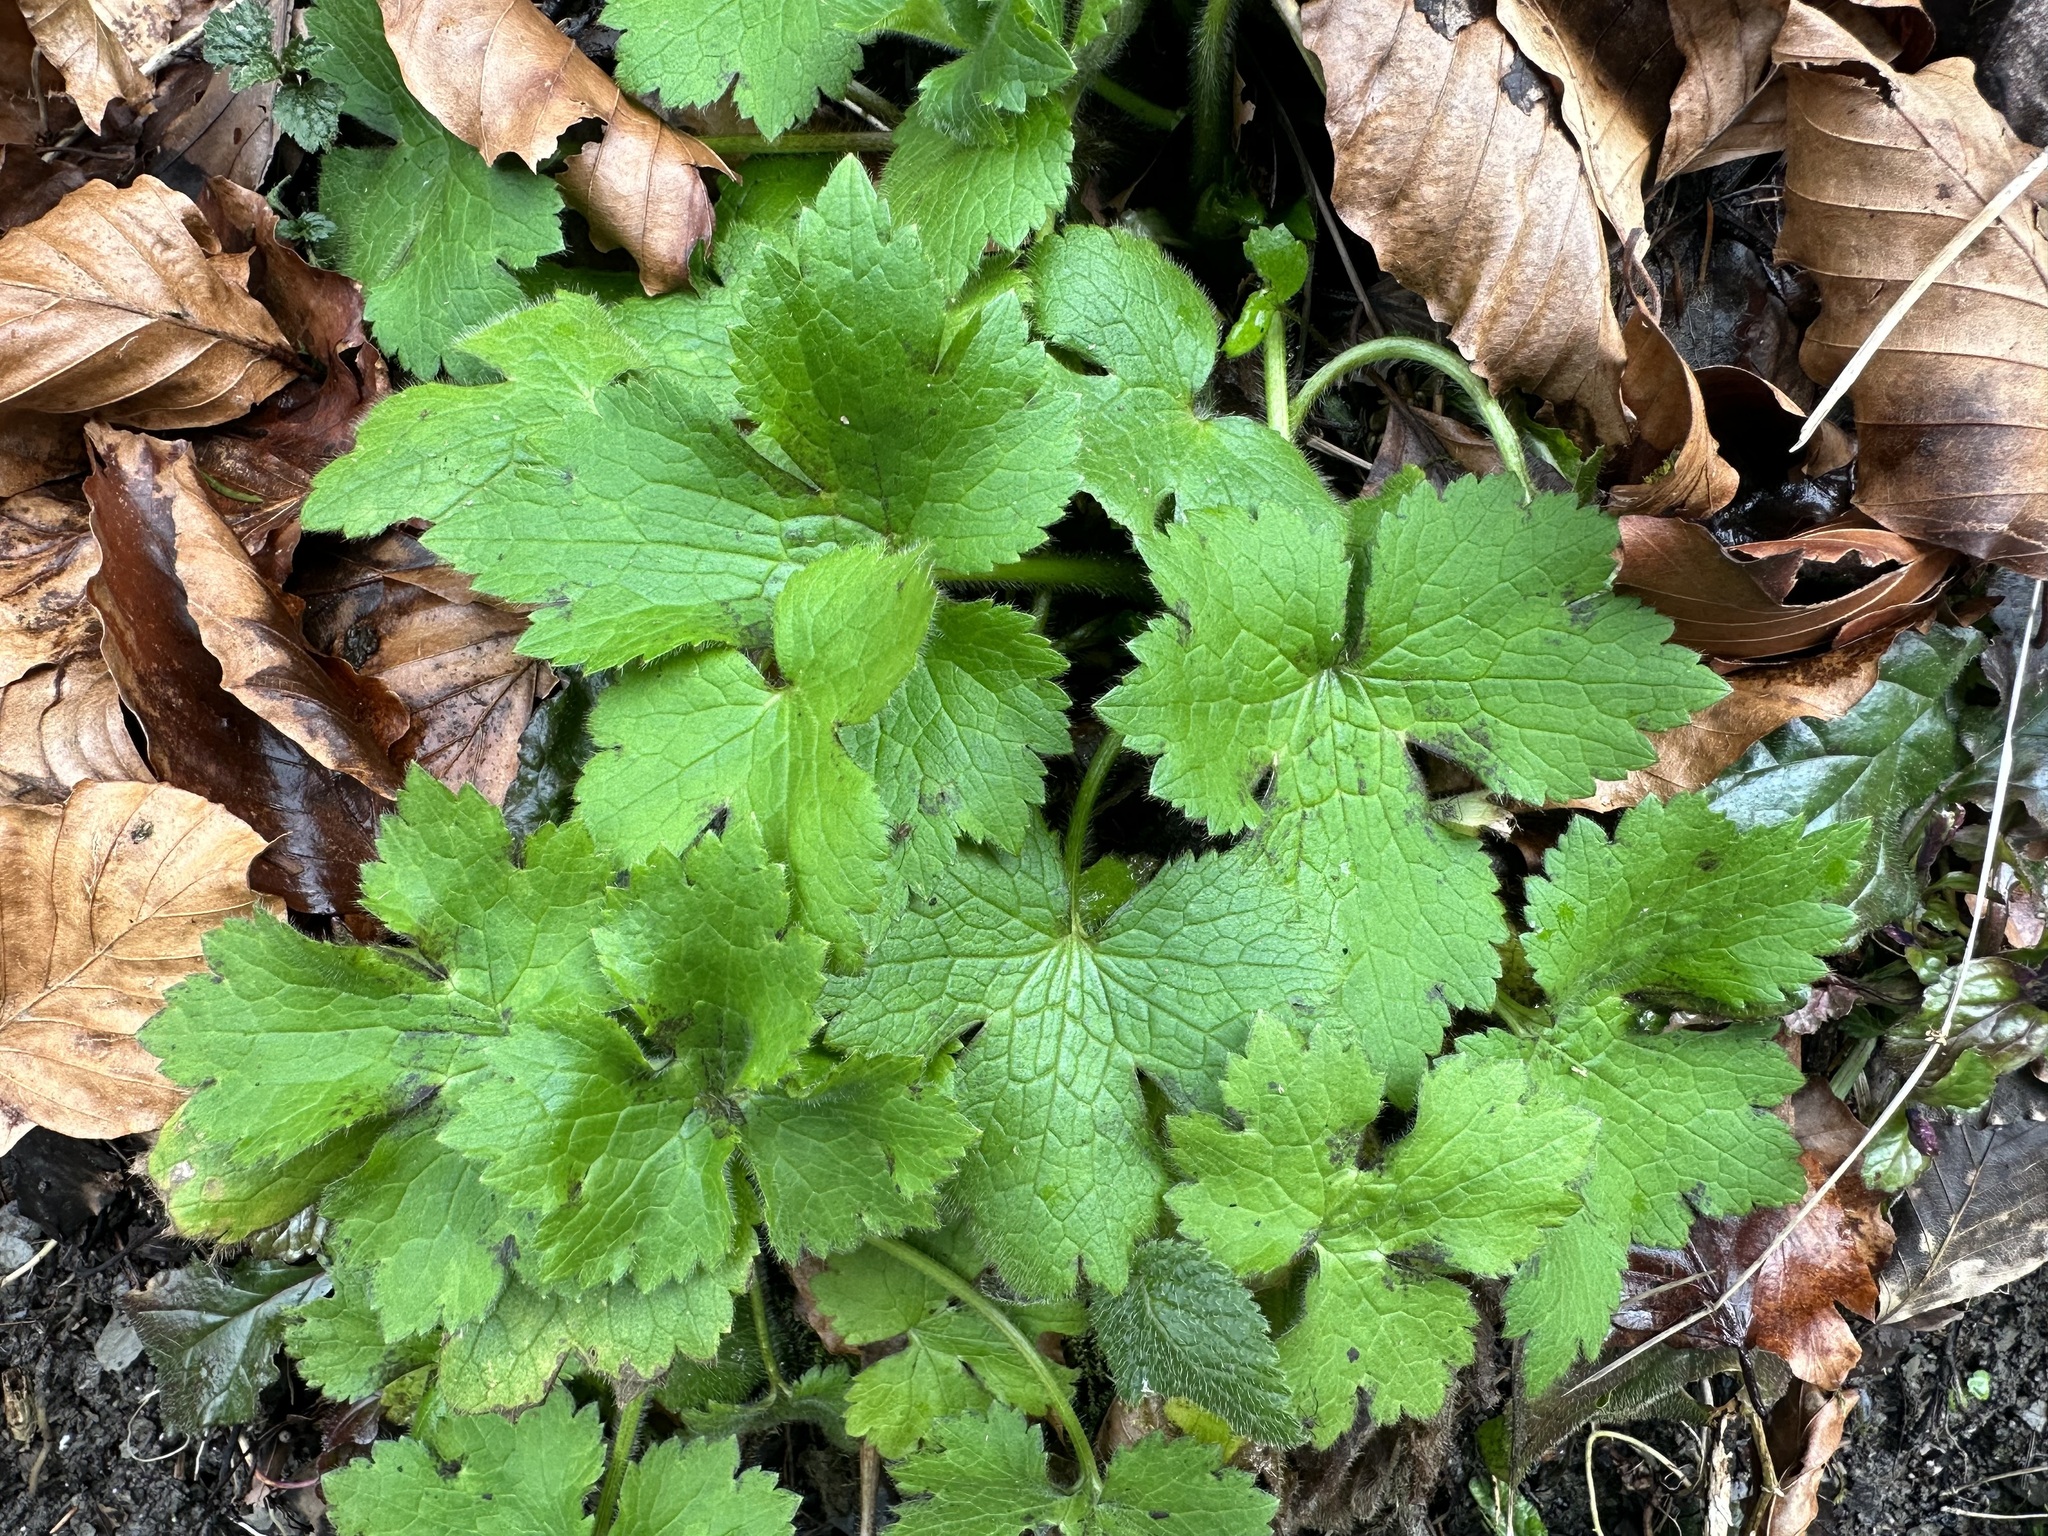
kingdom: Plantae
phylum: Tracheophyta
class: Magnoliopsida
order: Ranunculales
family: Ranunculaceae
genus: Ranunculus
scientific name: Ranunculus lanuginosus
